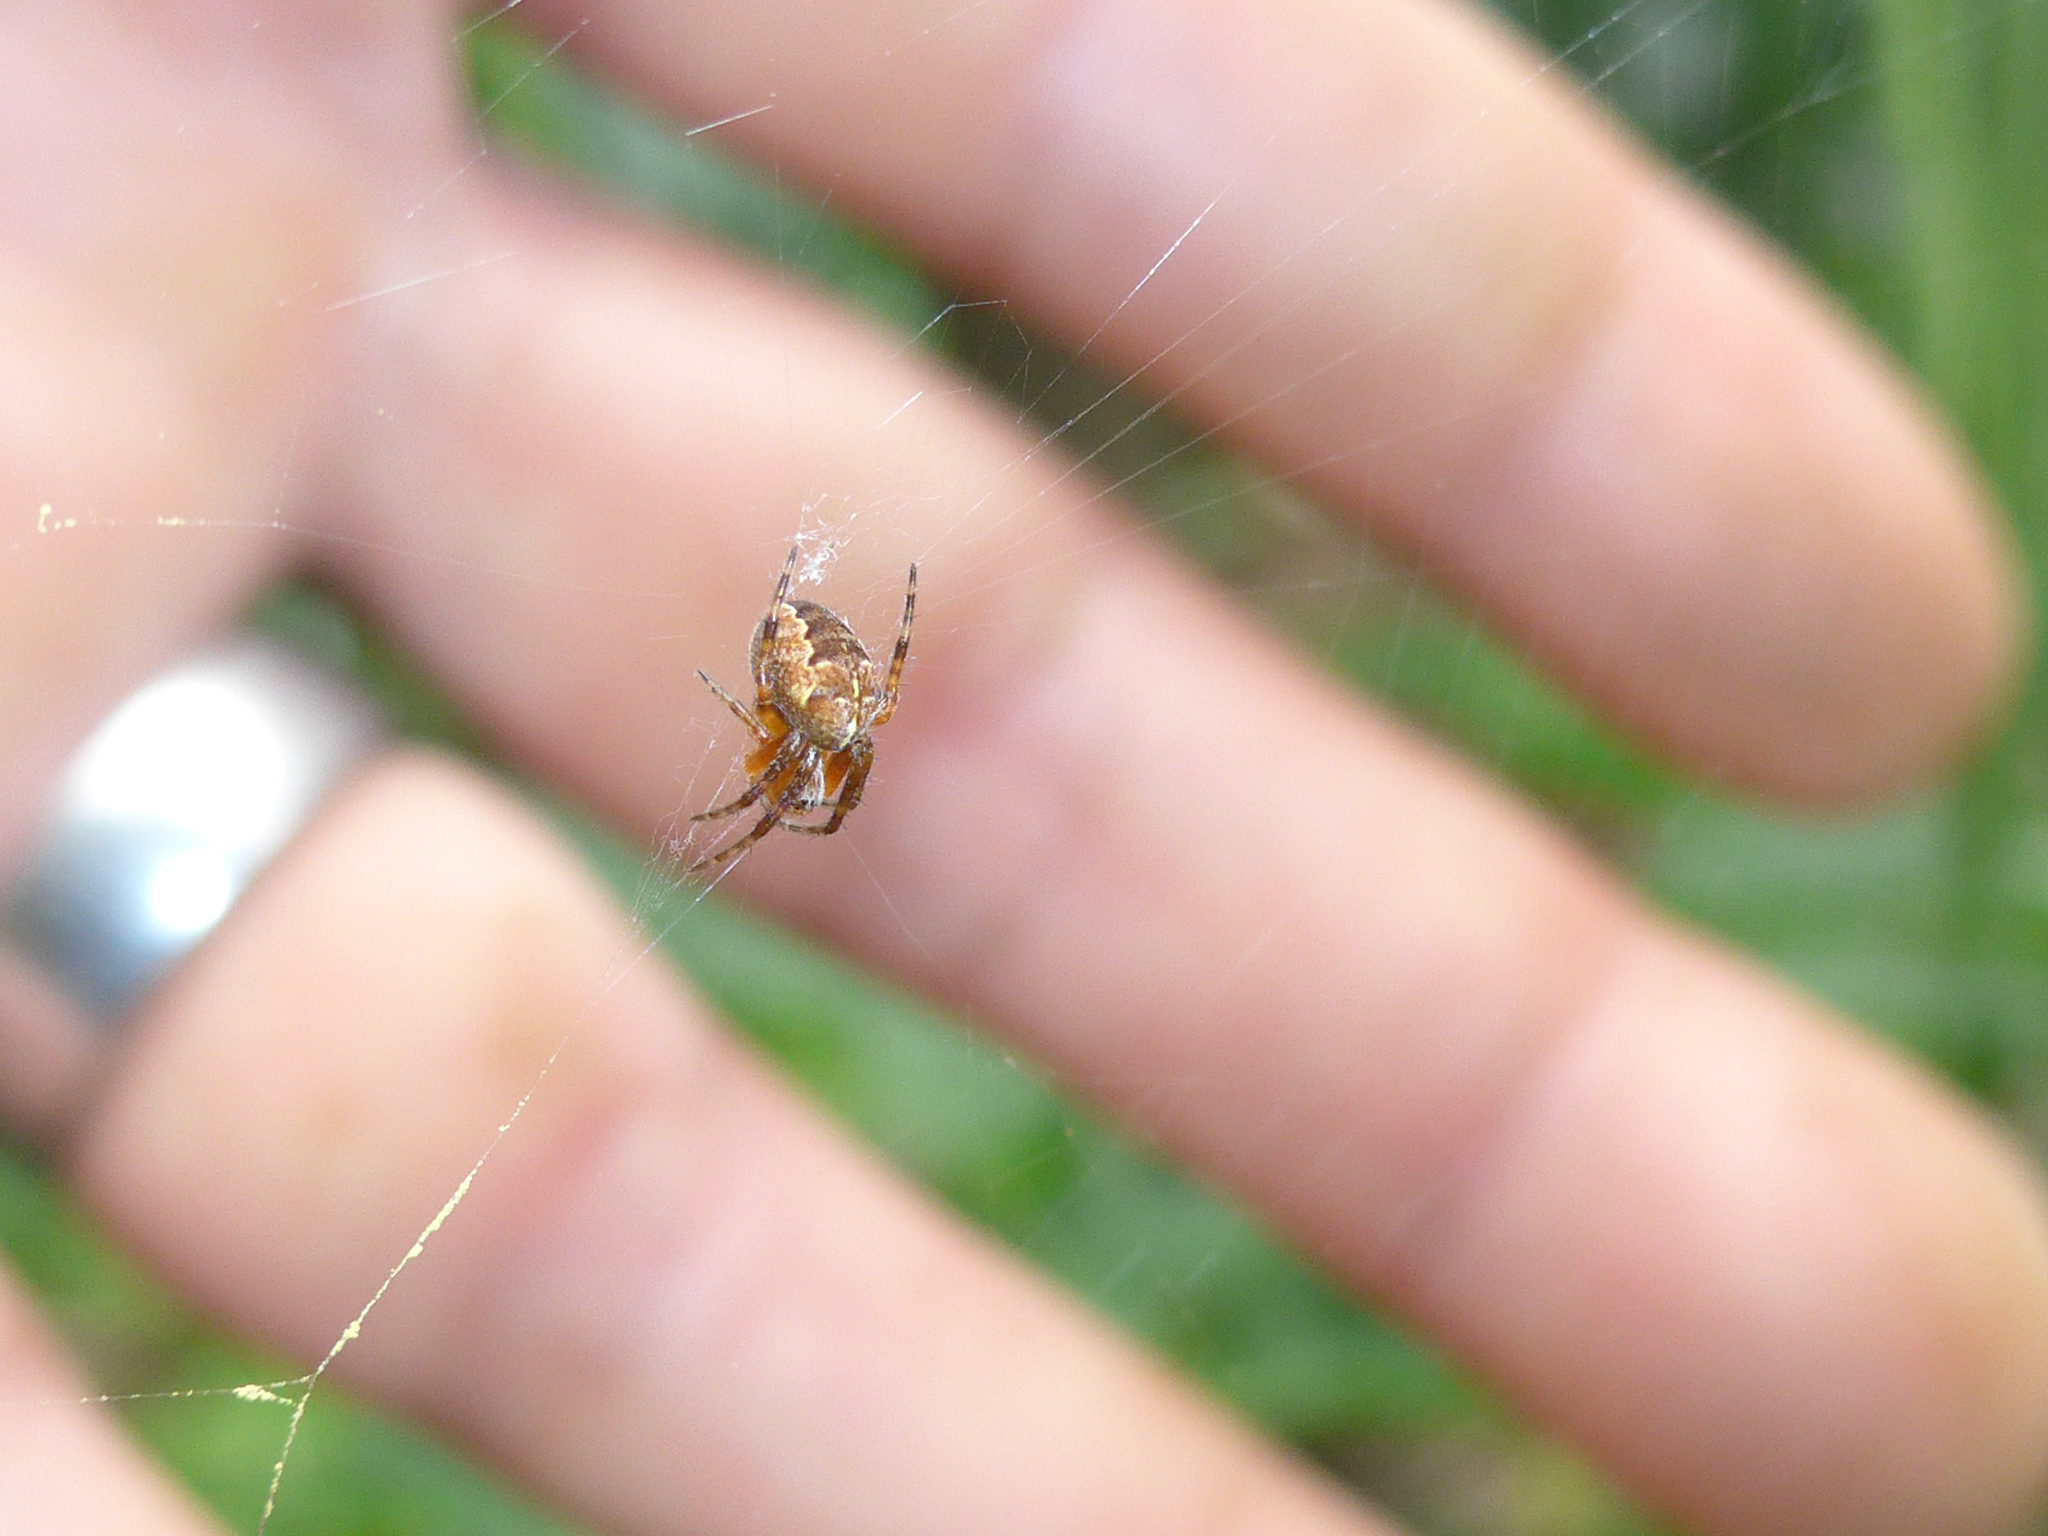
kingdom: Animalia
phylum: Arthropoda
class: Arachnida
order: Araneae
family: Araneidae
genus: Araneus
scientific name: Araneus diadematus
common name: Cross orbweaver
